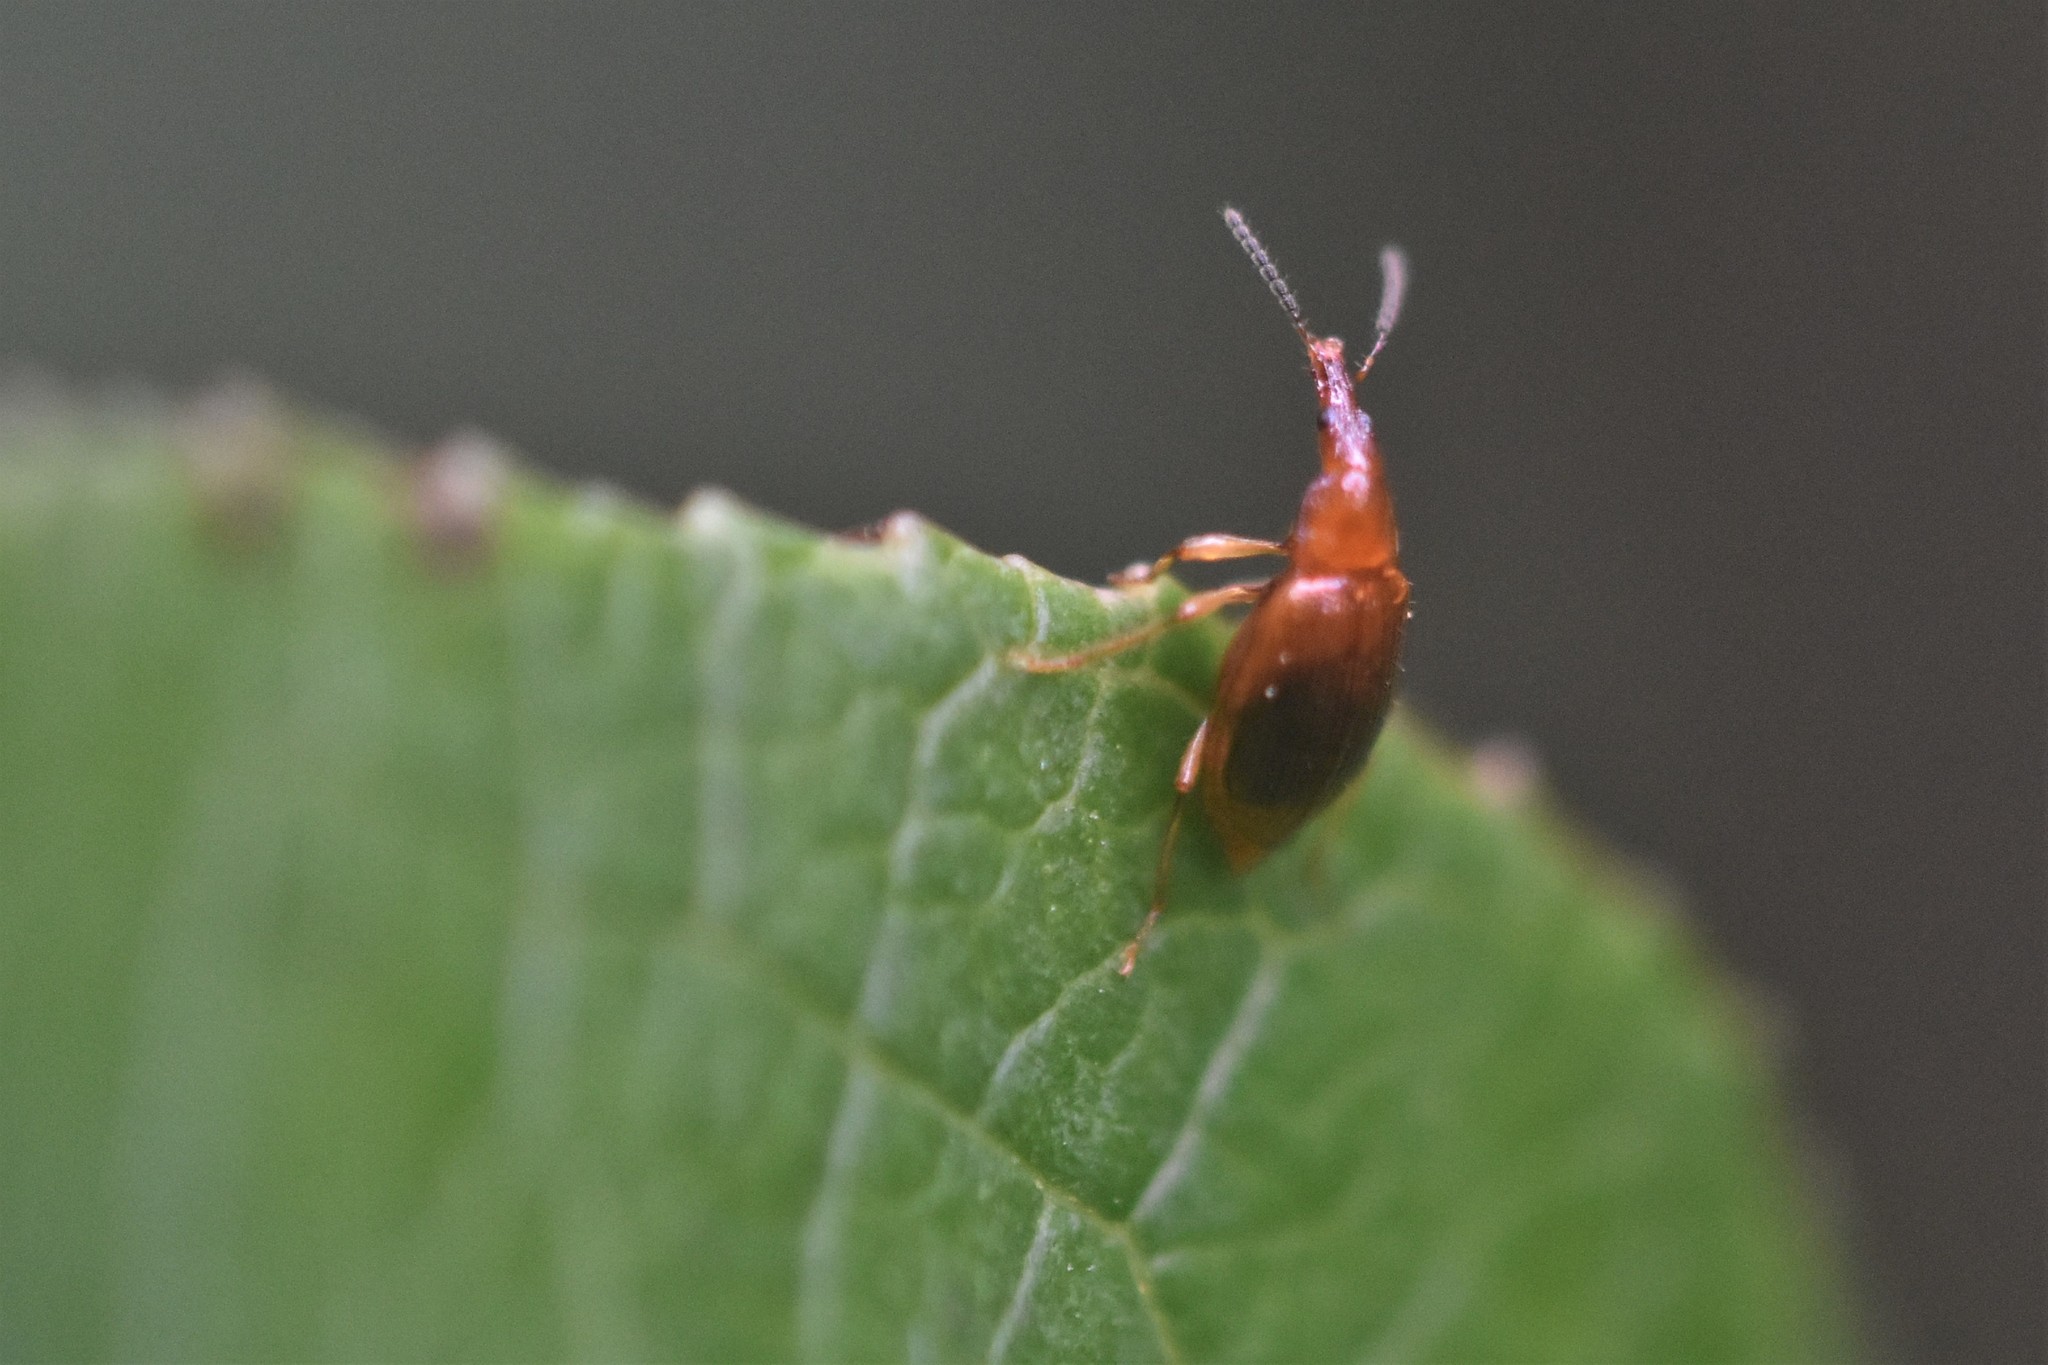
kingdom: Animalia
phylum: Arthropoda
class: Insecta
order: Coleoptera
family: Staphylinidae
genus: Tanyrhinus
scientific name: Tanyrhinus singularis
